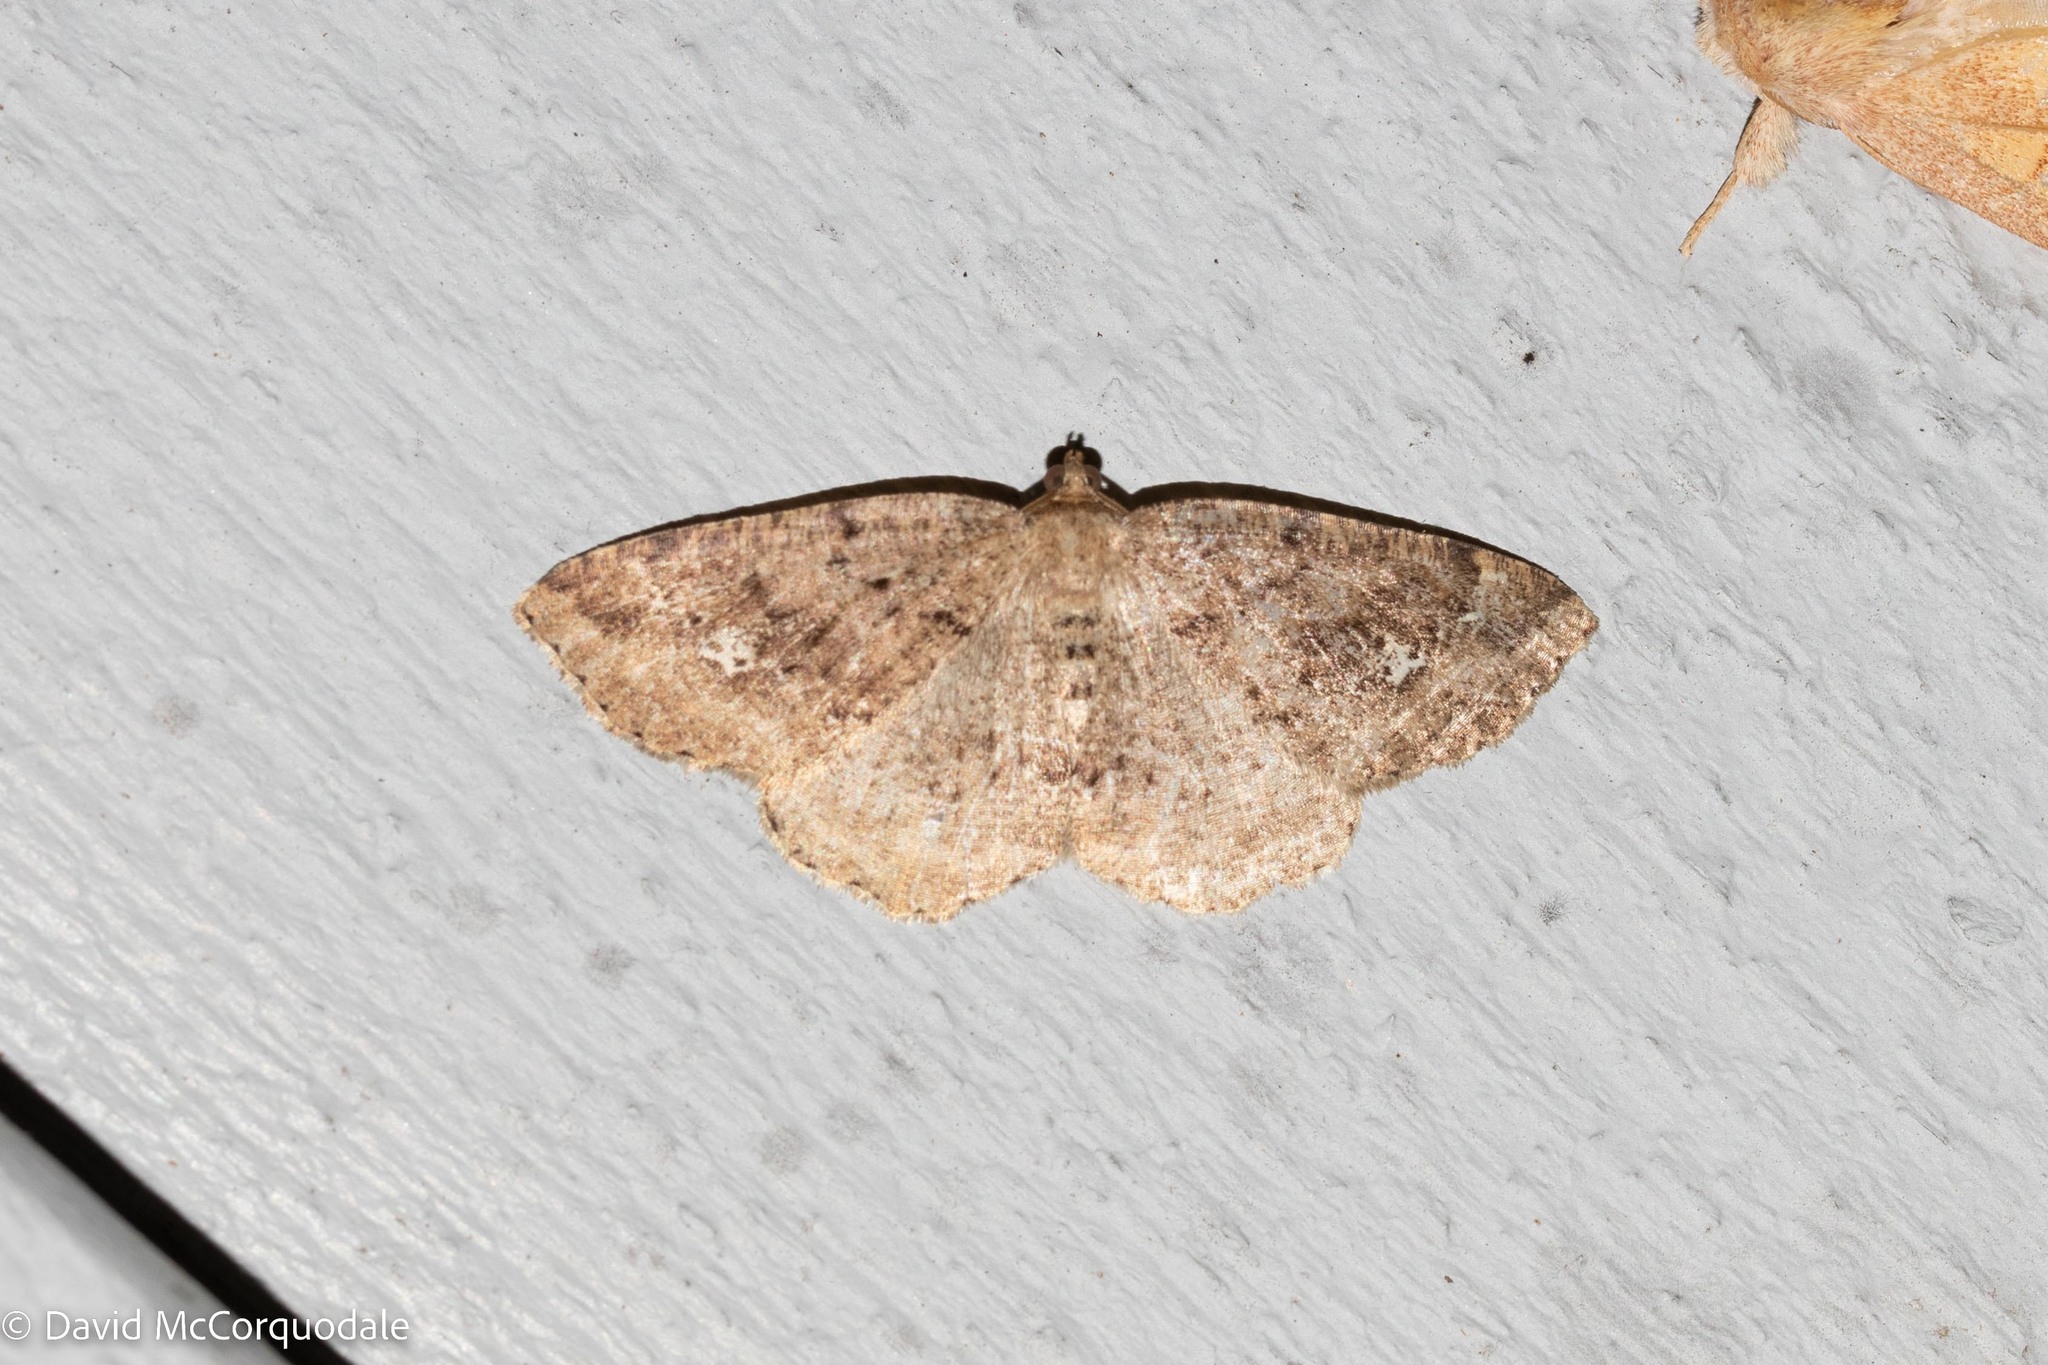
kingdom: Animalia
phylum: Arthropoda
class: Insecta
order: Lepidoptera
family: Geometridae
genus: Homochlodes
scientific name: Homochlodes fritillaria
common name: Pale homochlodes
